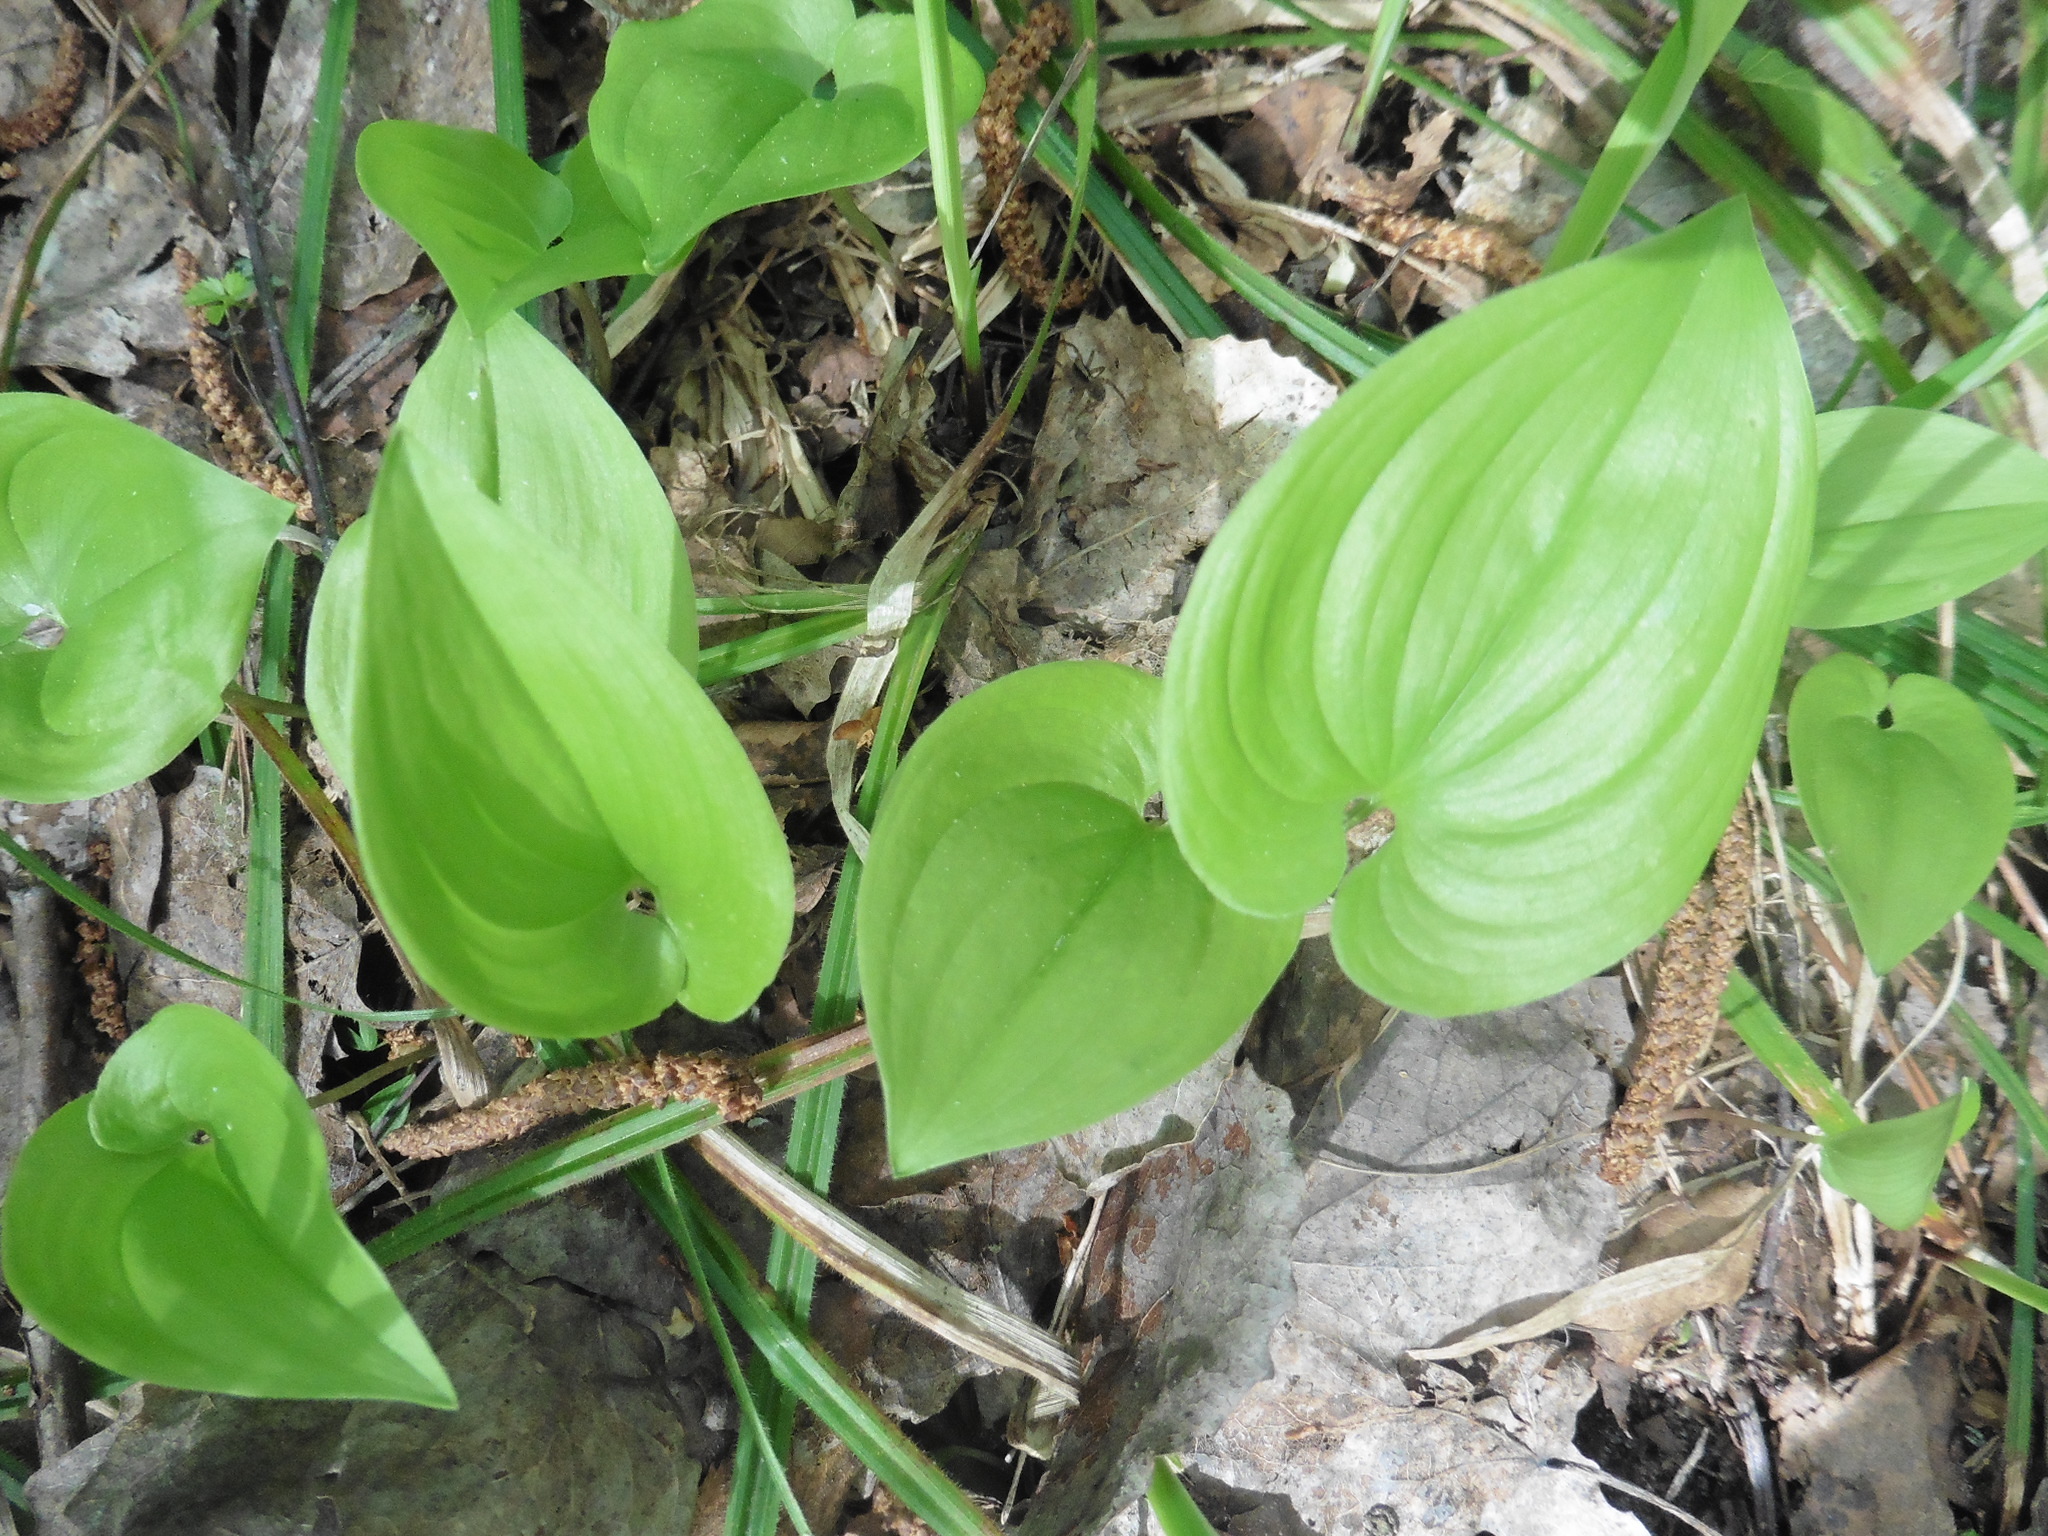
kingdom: Plantae
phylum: Tracheophyta
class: Liliopsida
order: Asparagales
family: Asparagaceae
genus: Maianthemum
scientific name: Maianthemum bifolium
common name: May lily
